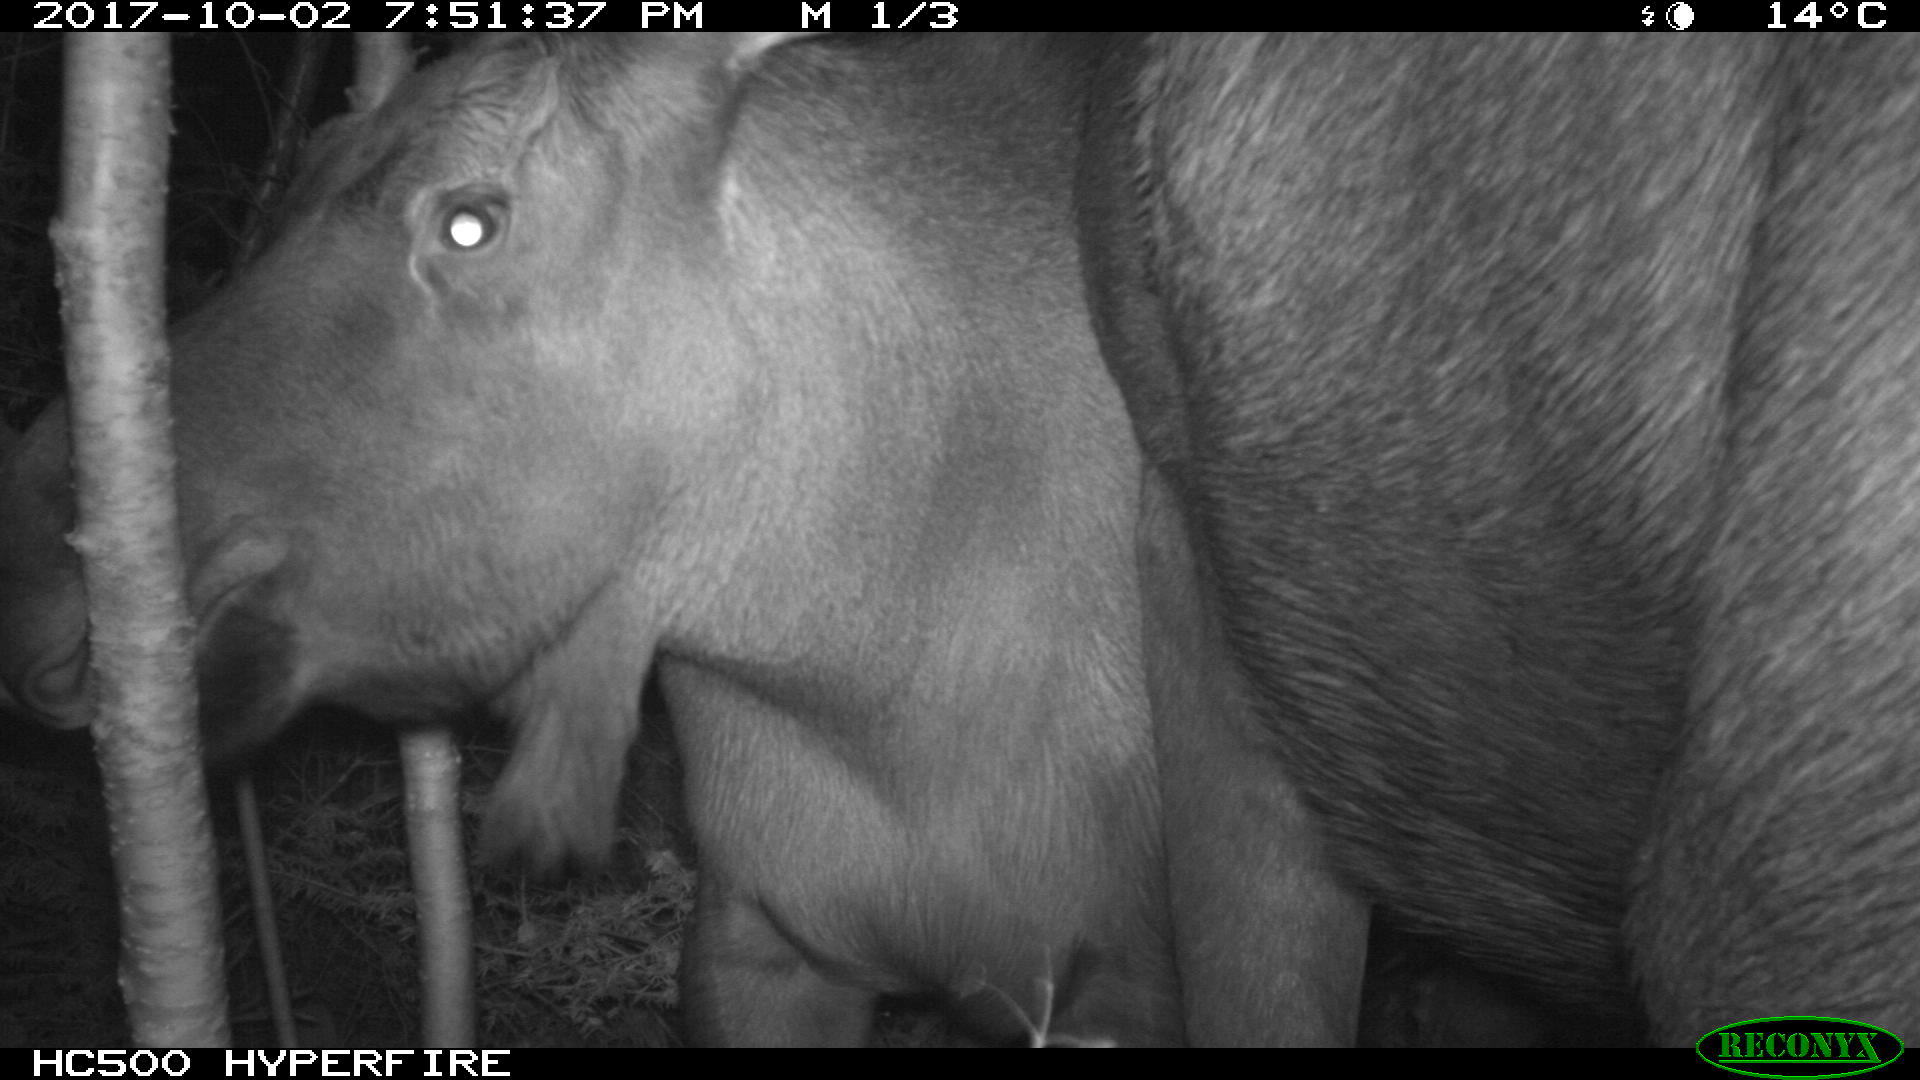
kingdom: Animalia
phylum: Chordata
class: Mammalia
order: Artiodactyla
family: Cervidae
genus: Alces
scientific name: Alces alces
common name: Moose
